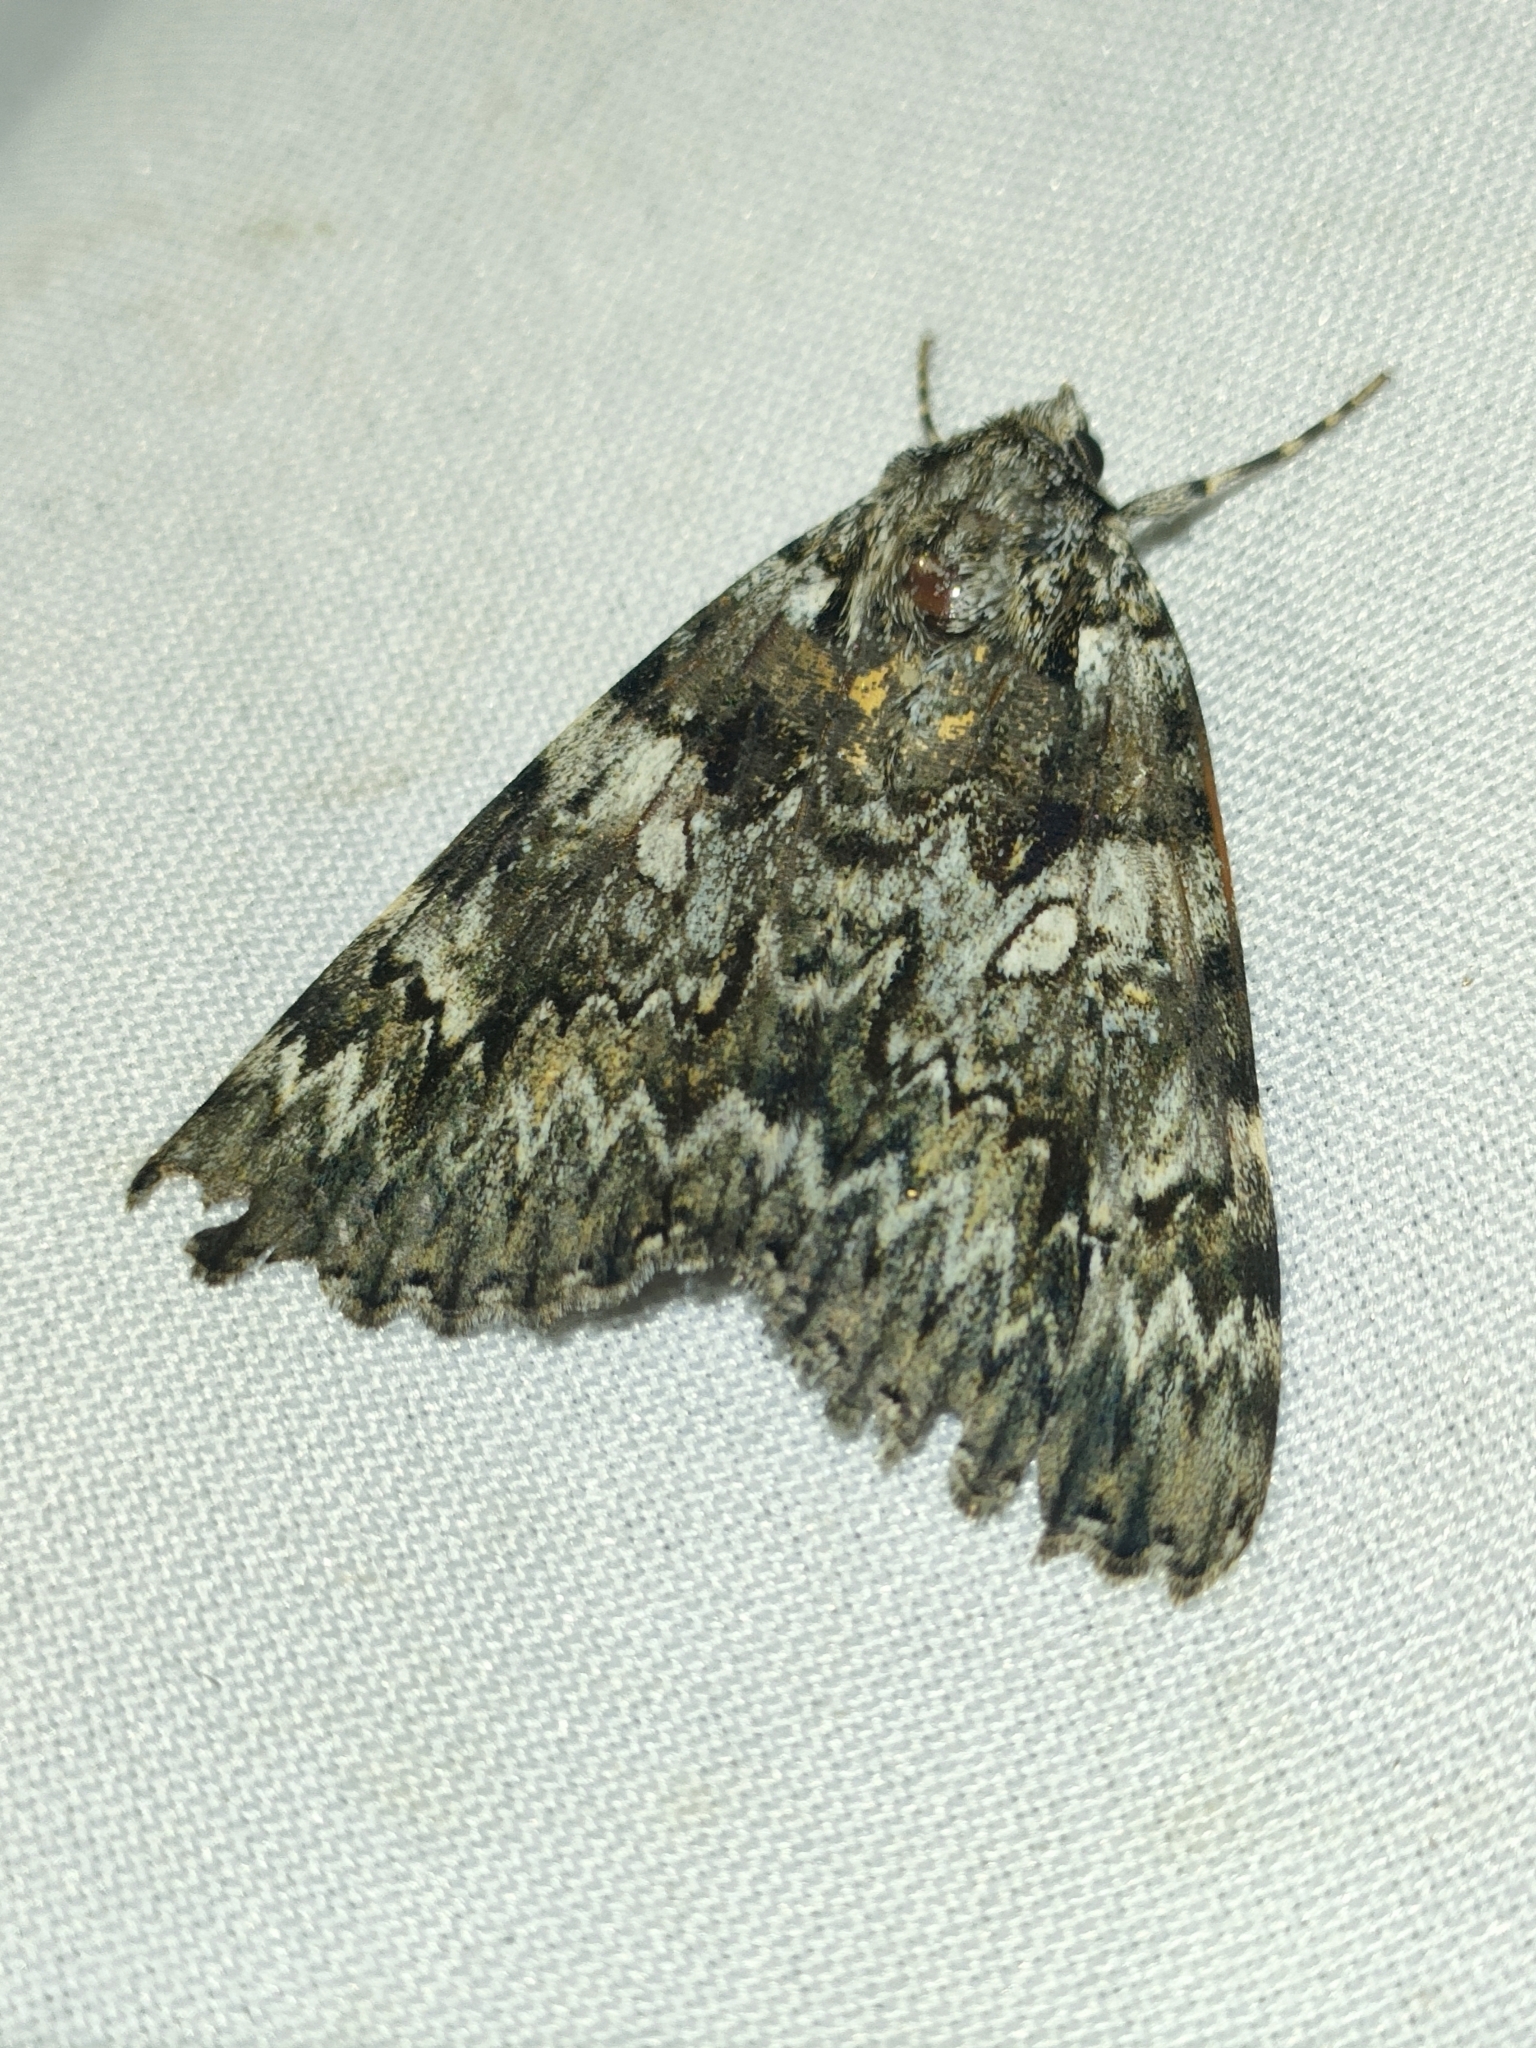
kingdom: Animalia
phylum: Arthropoda
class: Insecta
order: Lepidoptera
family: Erebidae
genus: Catocala
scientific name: Catocala promissa
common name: Light crimson underwing
